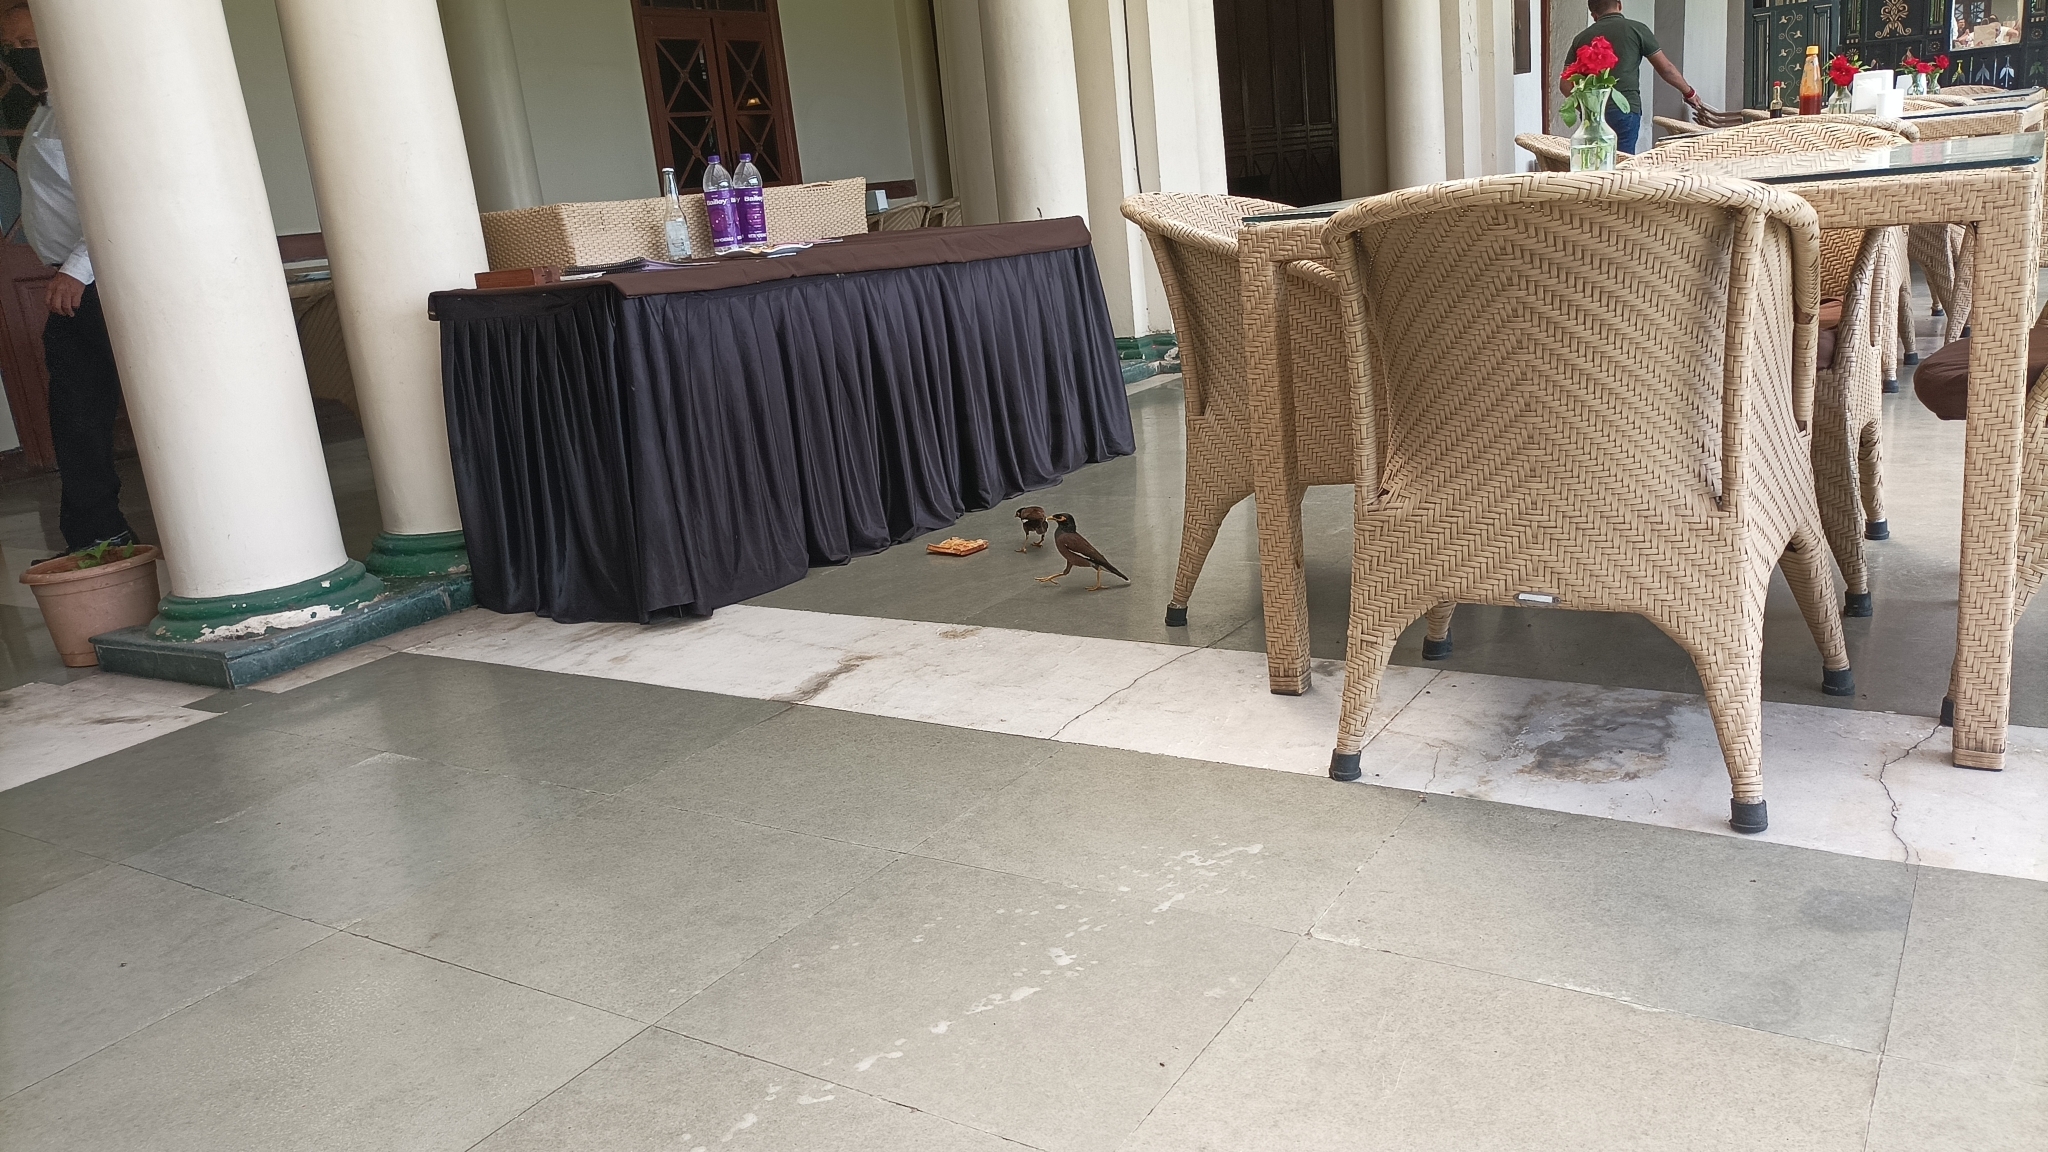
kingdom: Animalia
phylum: Chordata
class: Aves
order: Passeriformes
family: Sturnidae
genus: Acridotheres
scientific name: Acridotheres tristis
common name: Common myna
